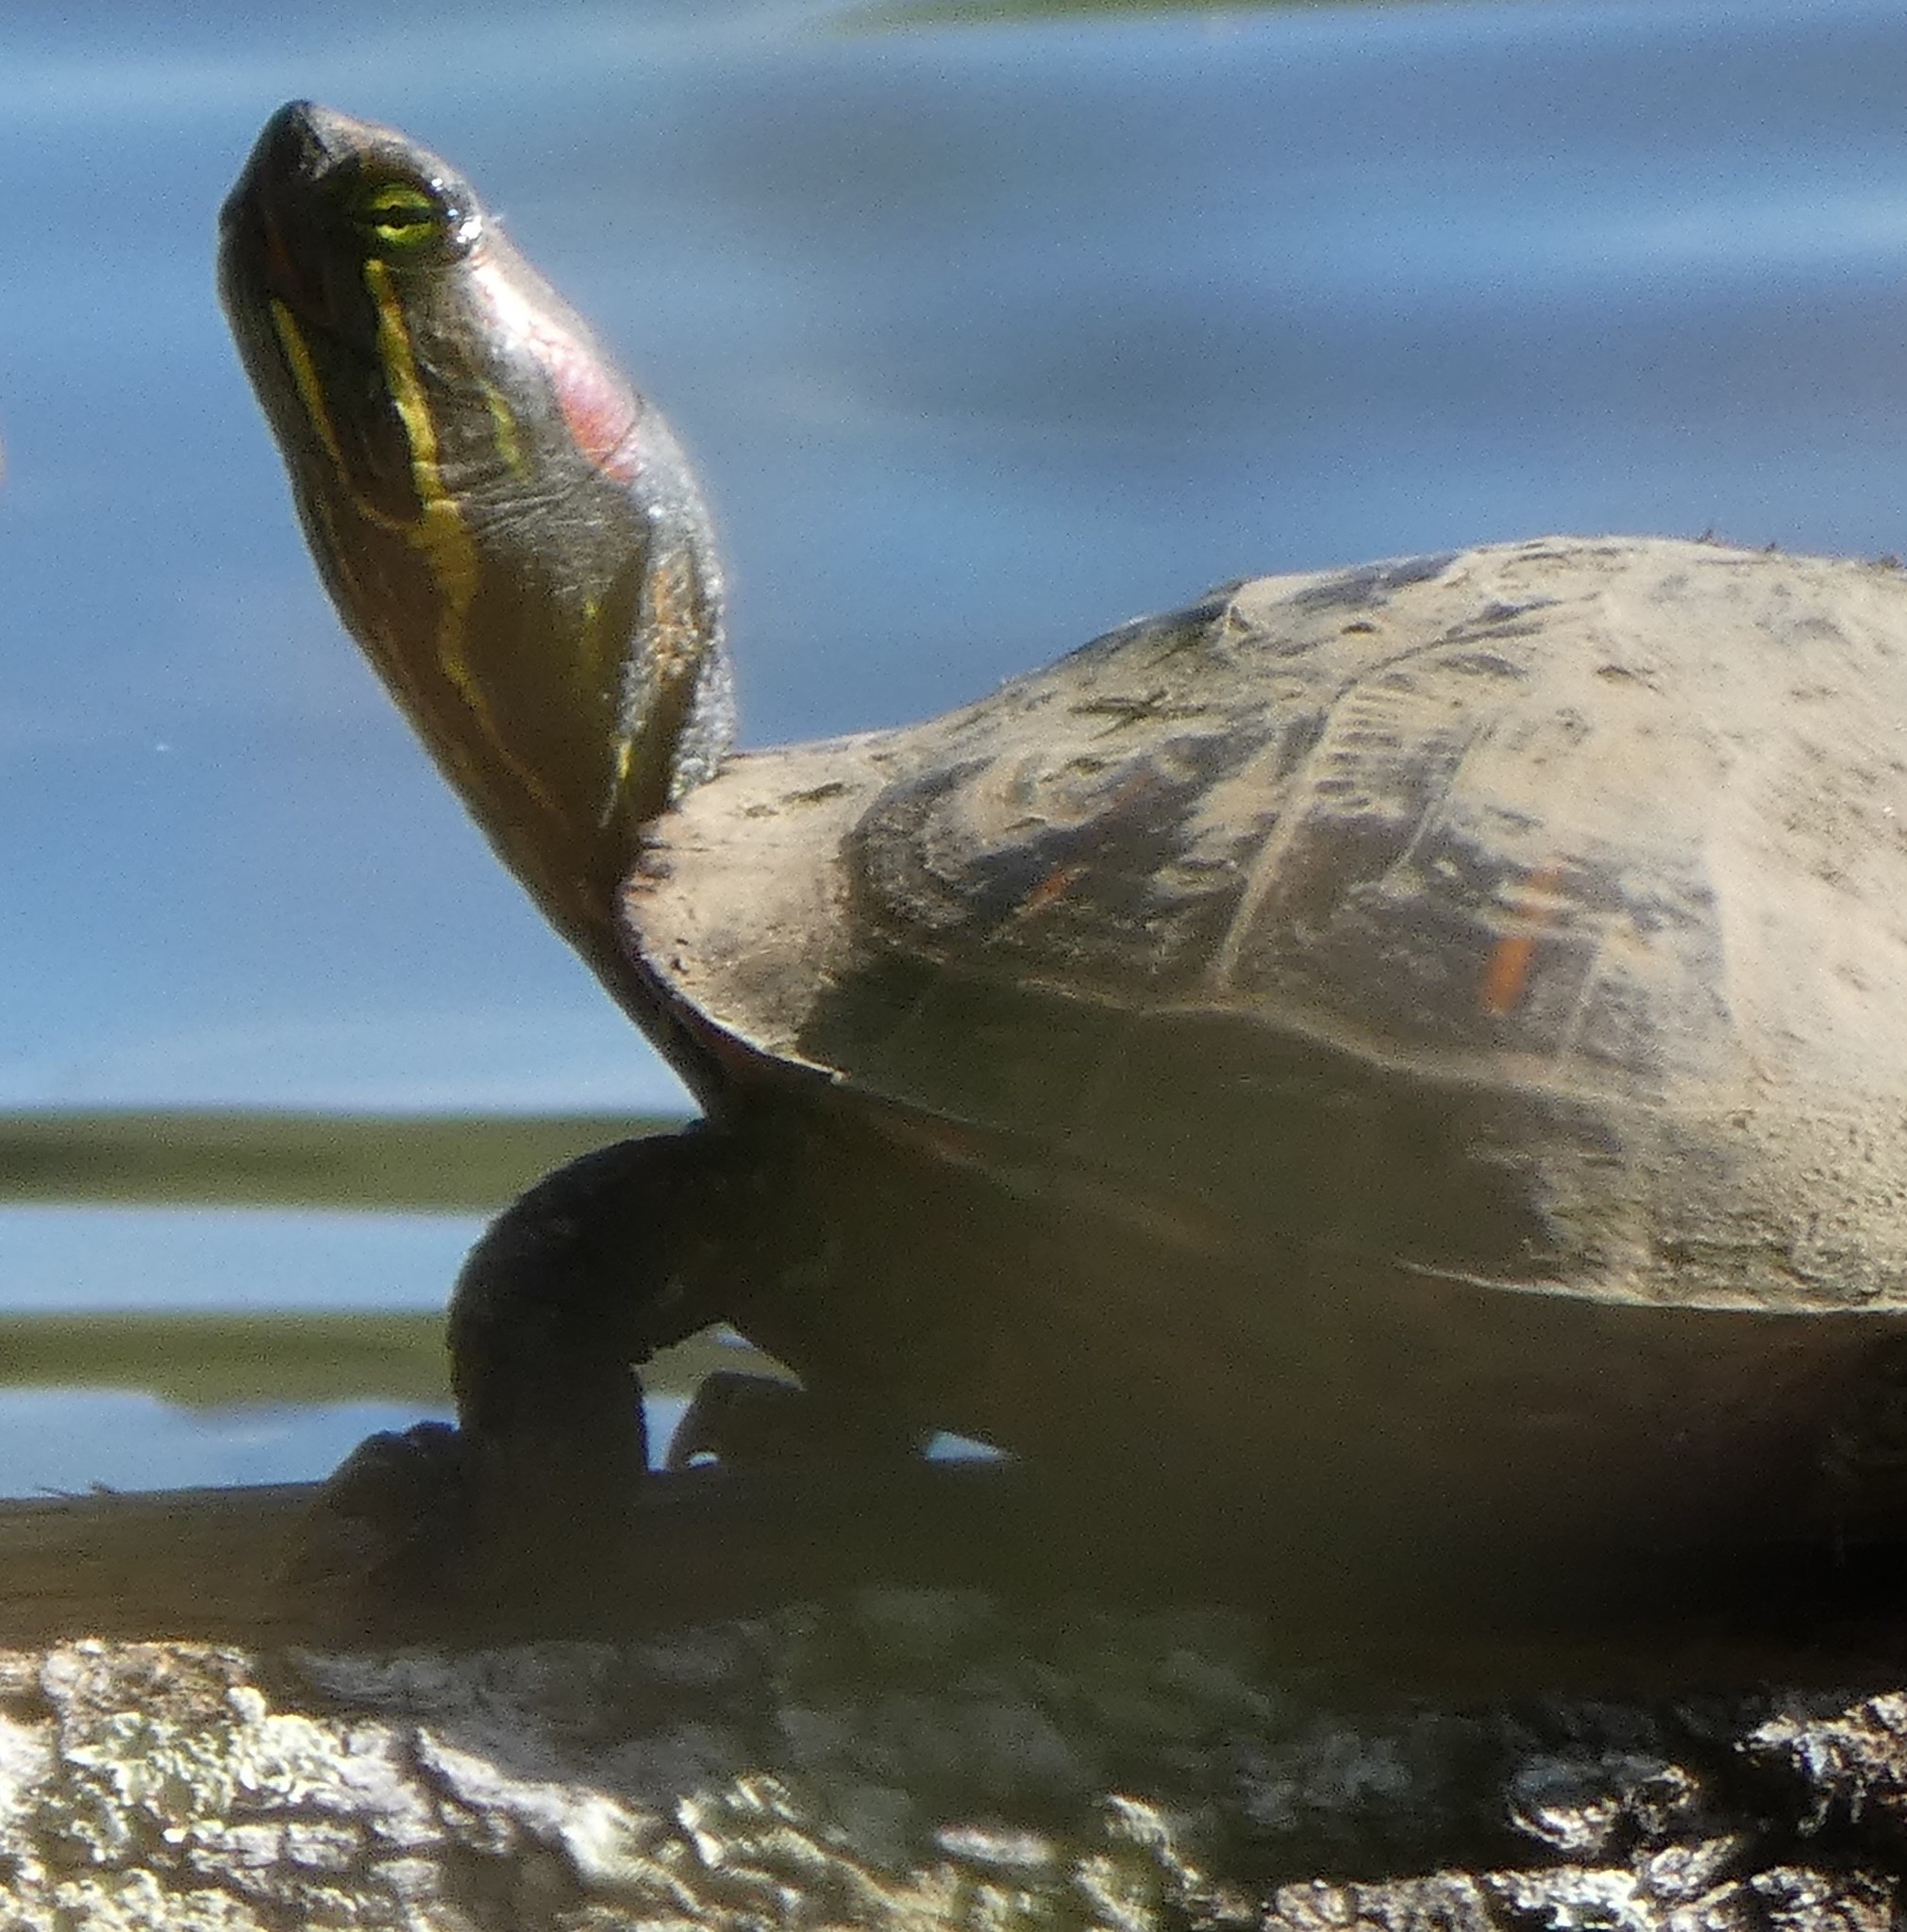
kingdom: Animalia
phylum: Chordata
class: Testudines
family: Emydidae
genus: Trachemys
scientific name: Trachemys scripta
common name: Slider
